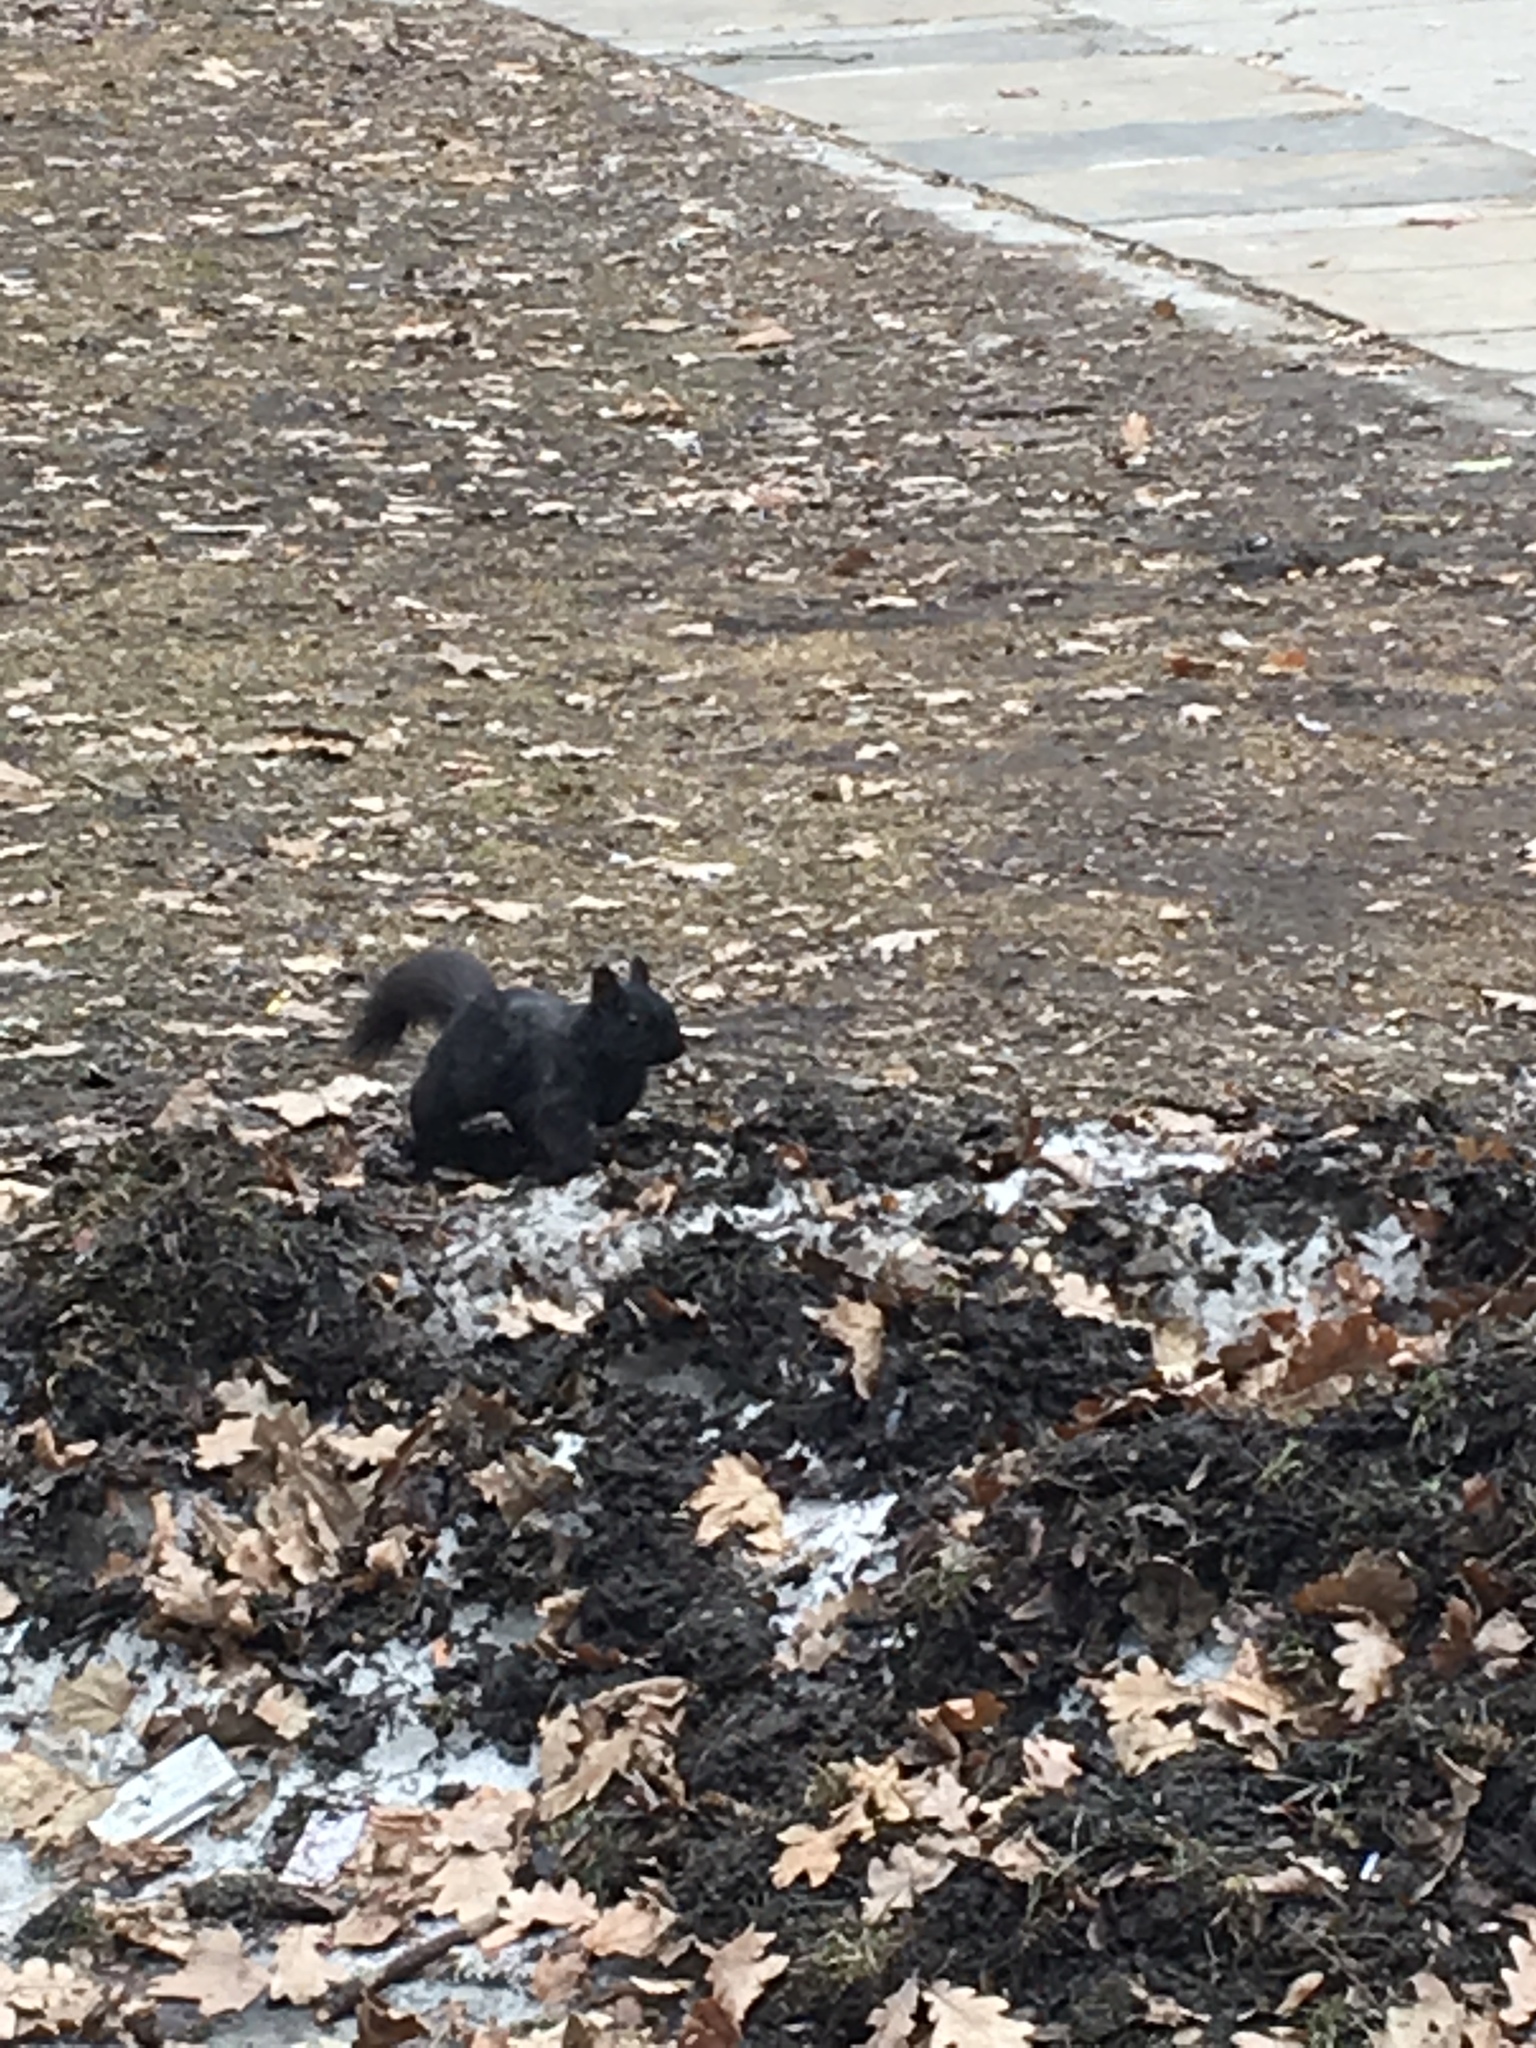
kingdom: Animalia
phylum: Chordata
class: Mammalia
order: Rodentia
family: Sciuridae
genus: Sciurus
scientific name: Sciurus carolinensis
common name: Eastern gray squirrel
